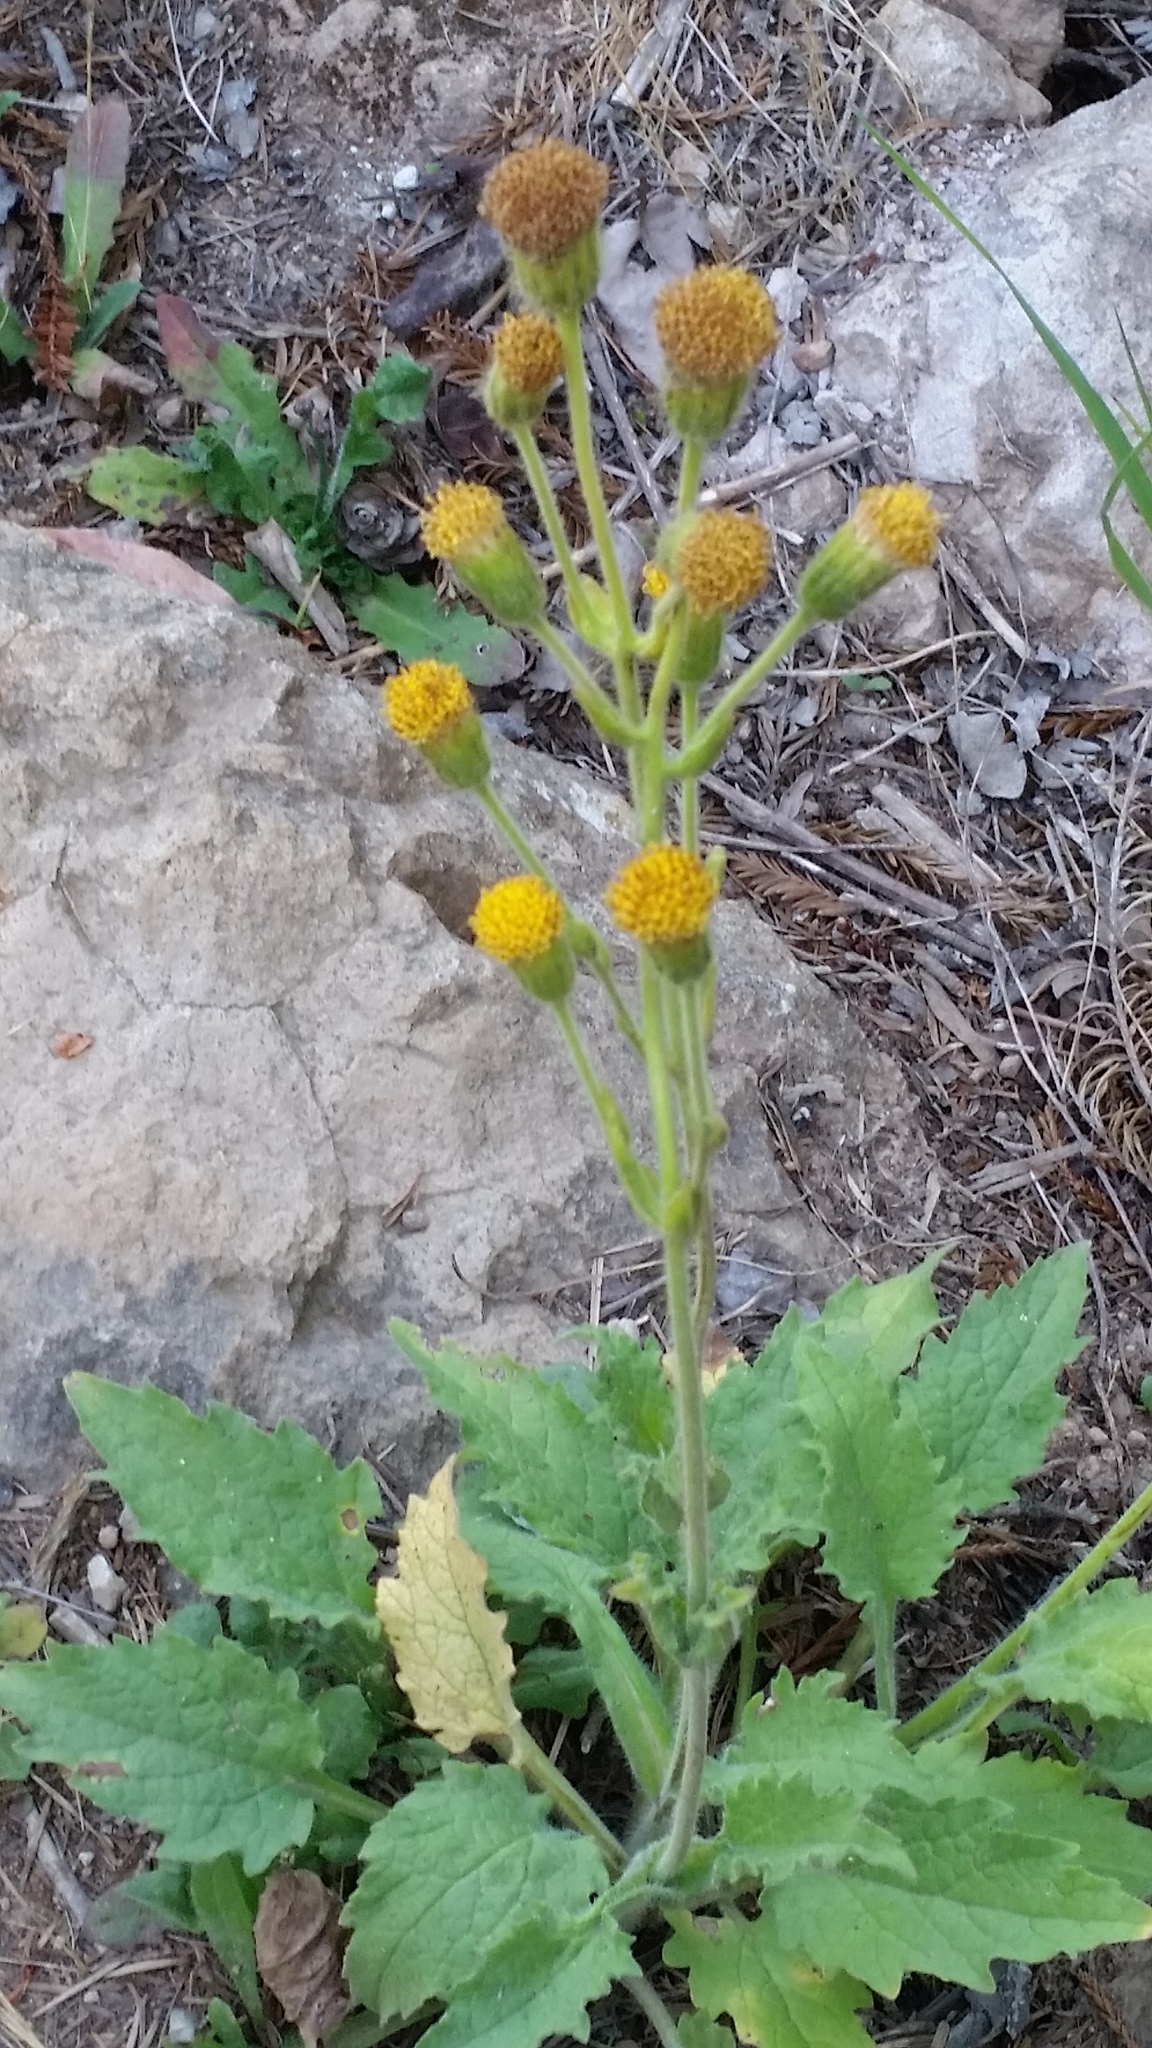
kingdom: Plantae
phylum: Tracheophyta
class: Magnoliopsida
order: Asterales
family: Asteraceae
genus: Arnica
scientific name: Arnica discoidea
